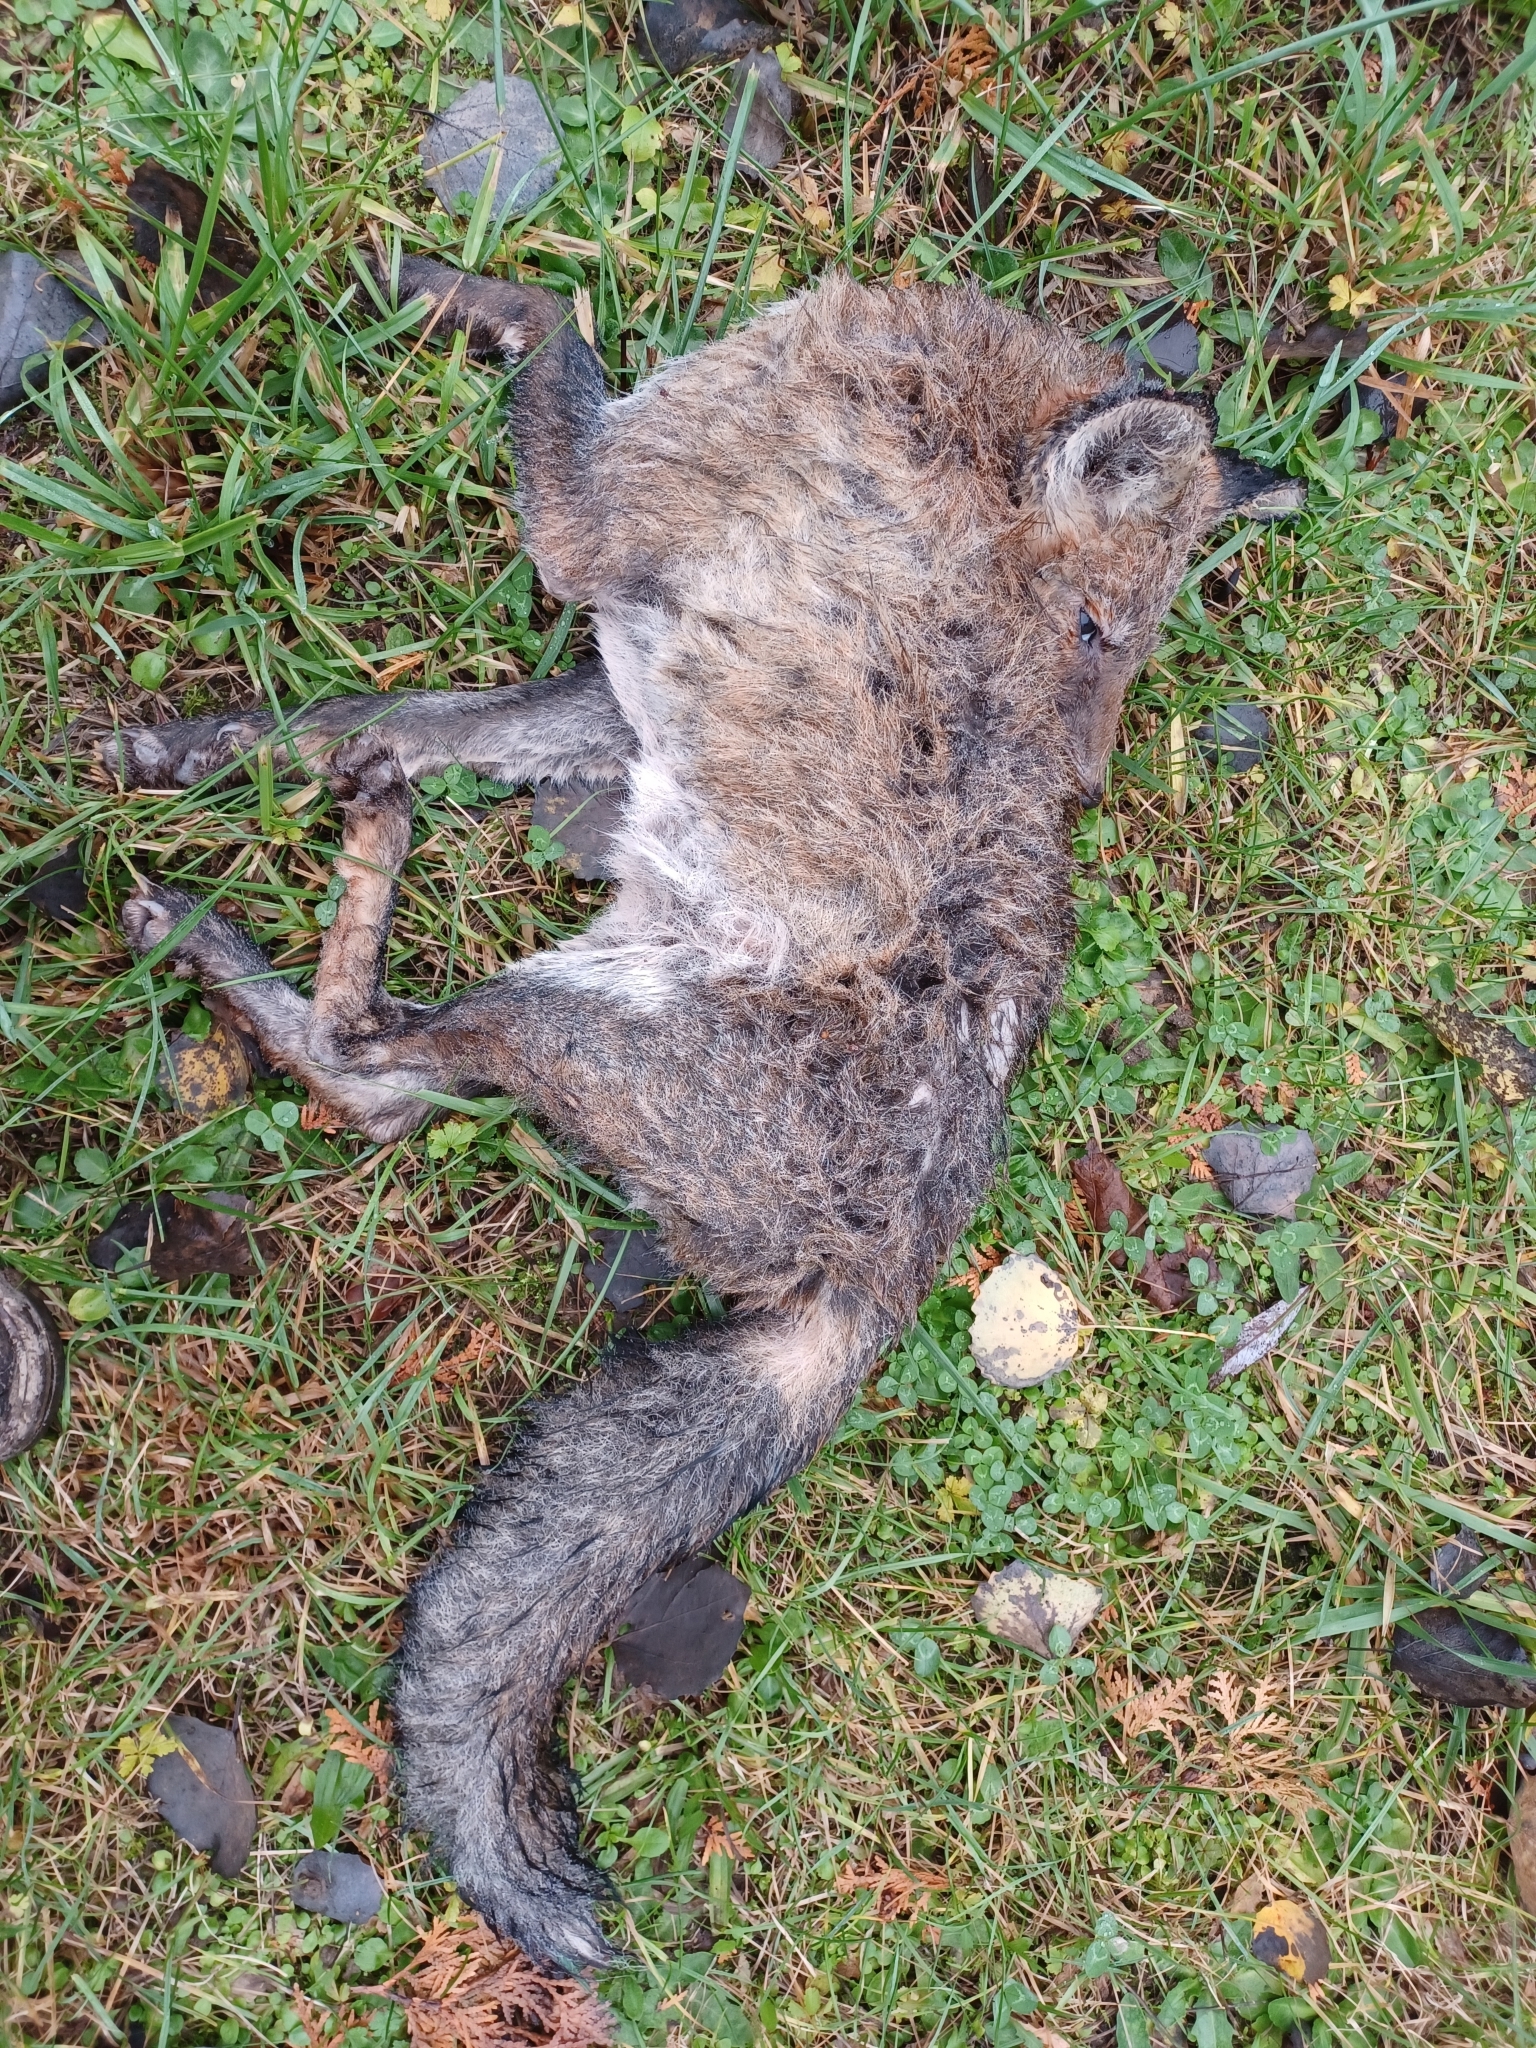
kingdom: Animalia
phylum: Chordata
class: Mammalia
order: Carnivora
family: Canidae
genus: Vulpes
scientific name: Vulpes vulpes
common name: Red fox
